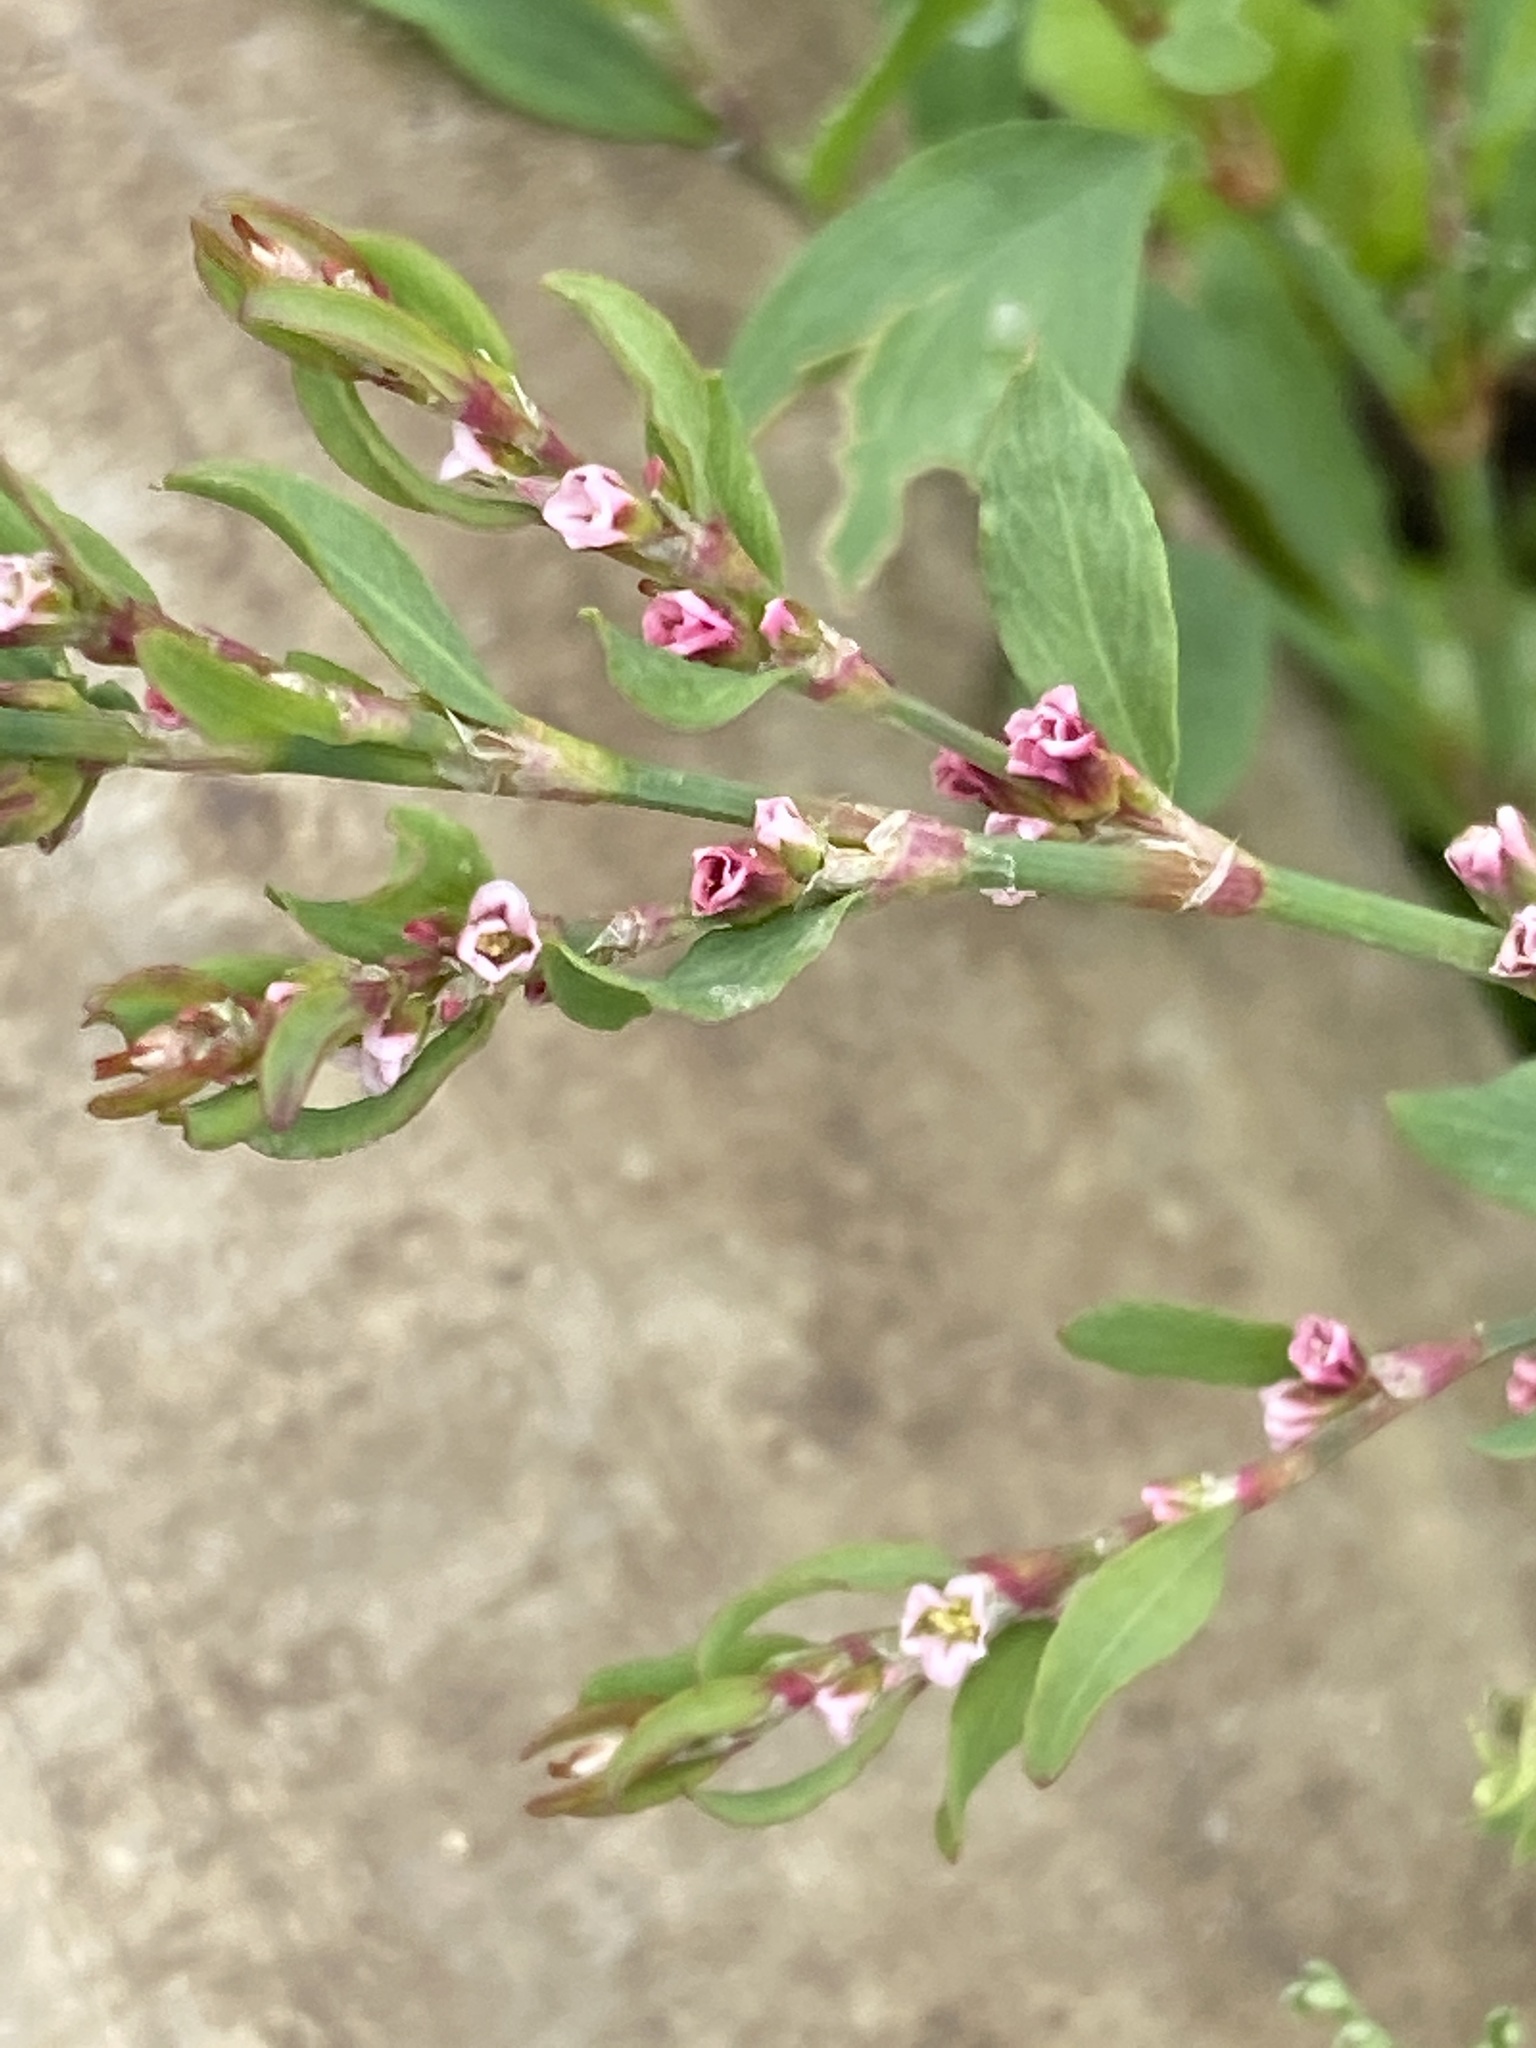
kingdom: Plantae
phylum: Tracheophyta
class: Magnoliopsida
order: Caryophyllales
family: Polygonaceae
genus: Polygonum
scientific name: Polygonum aviculare
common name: Prostrate knotweed
